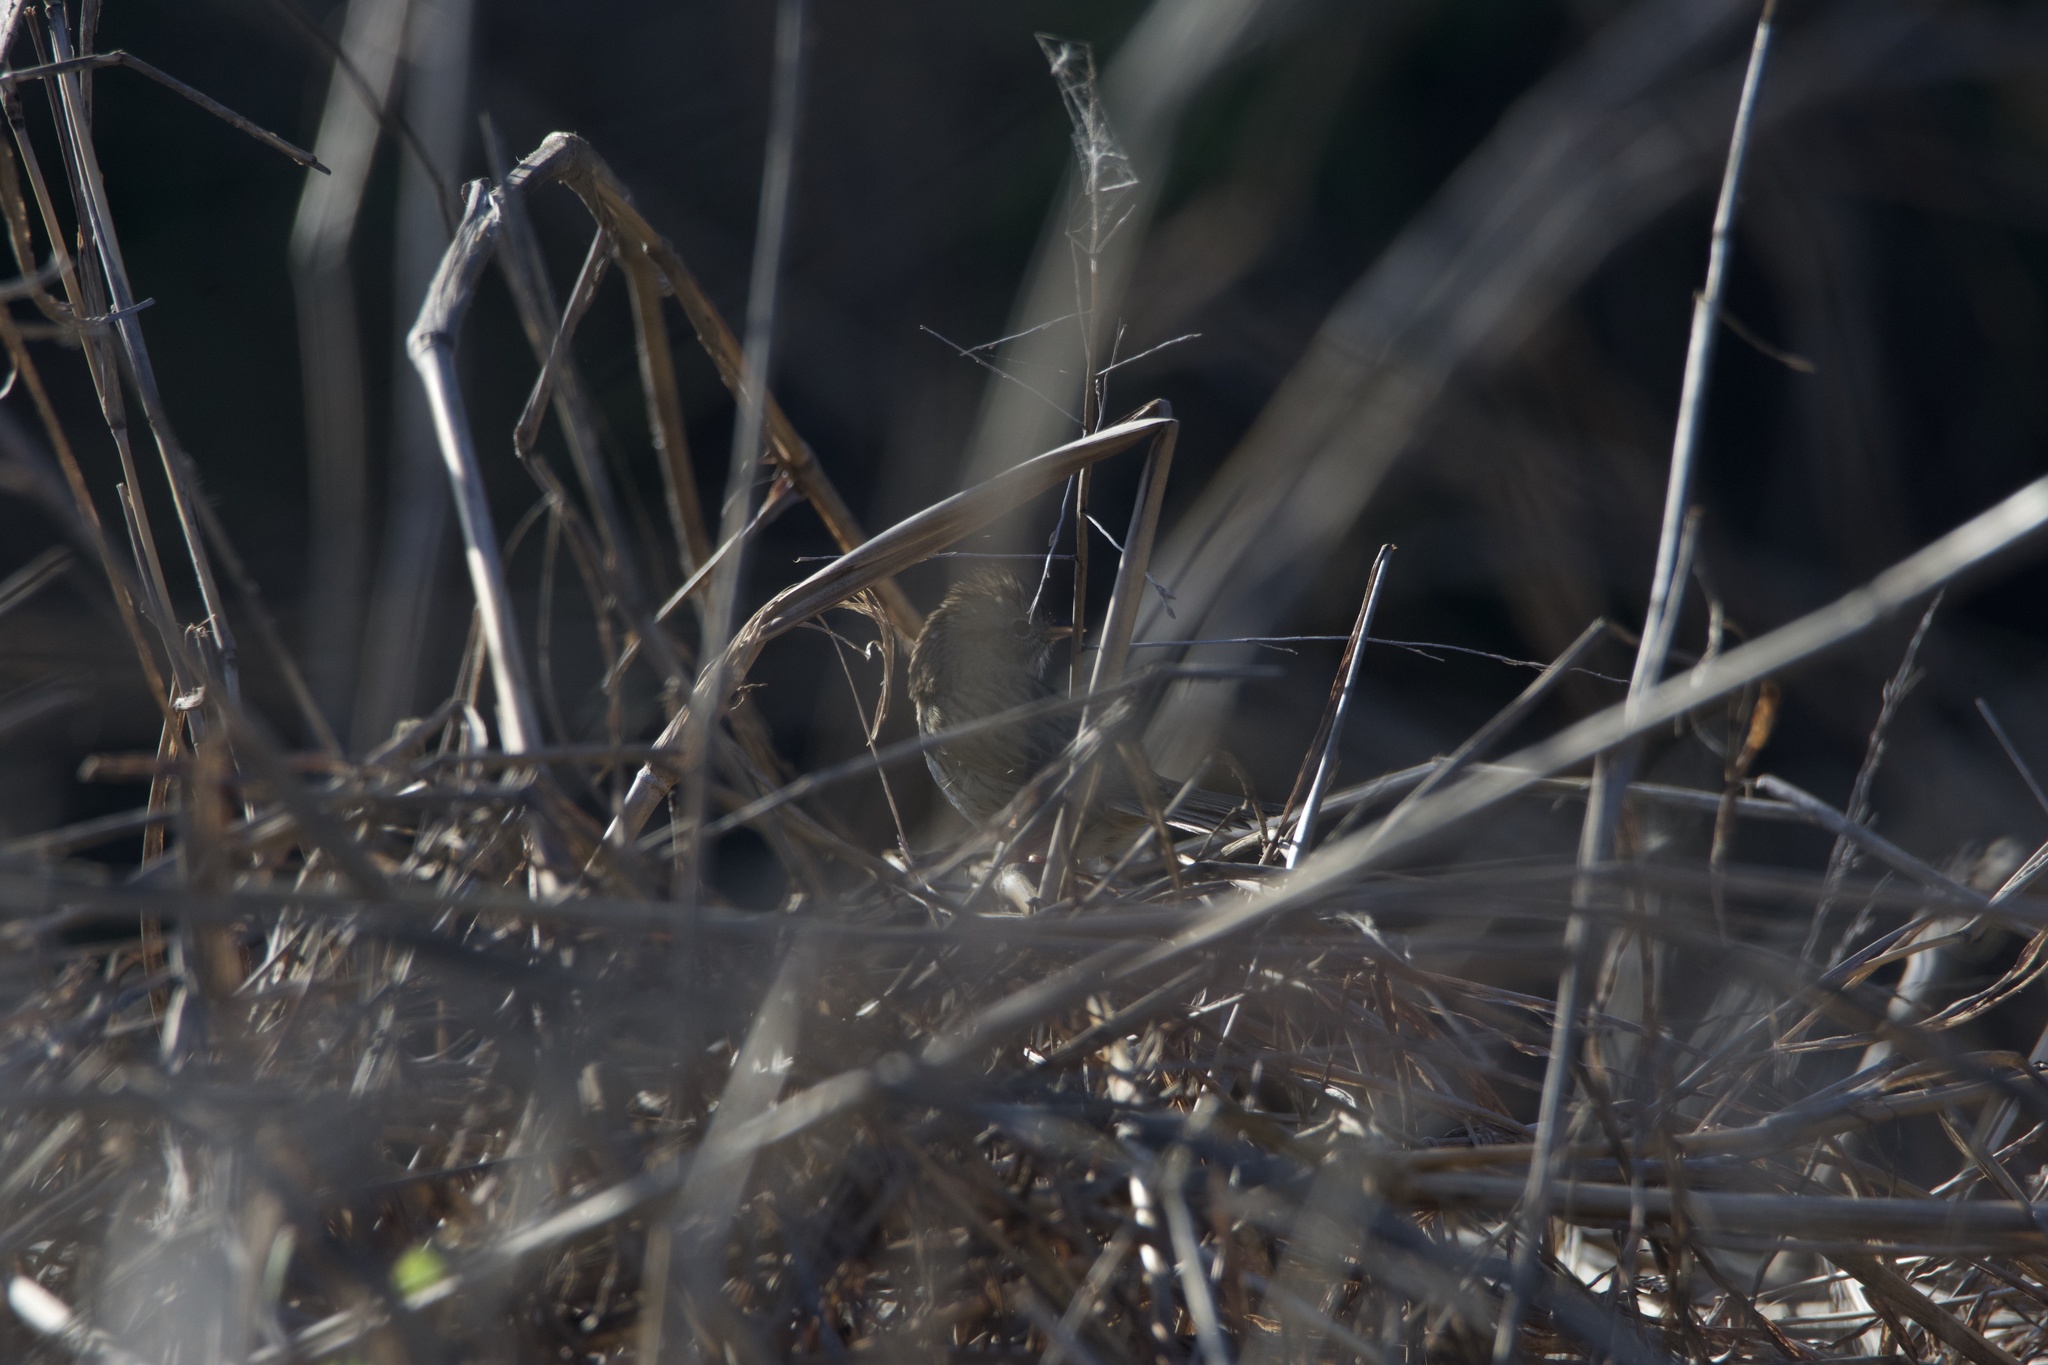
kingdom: Animalia
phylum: Chordata
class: Aves
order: Passeriformes
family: Passerellidae
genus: Melospiza
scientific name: Melospiza lincolnii
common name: Lincoln's sparrow
